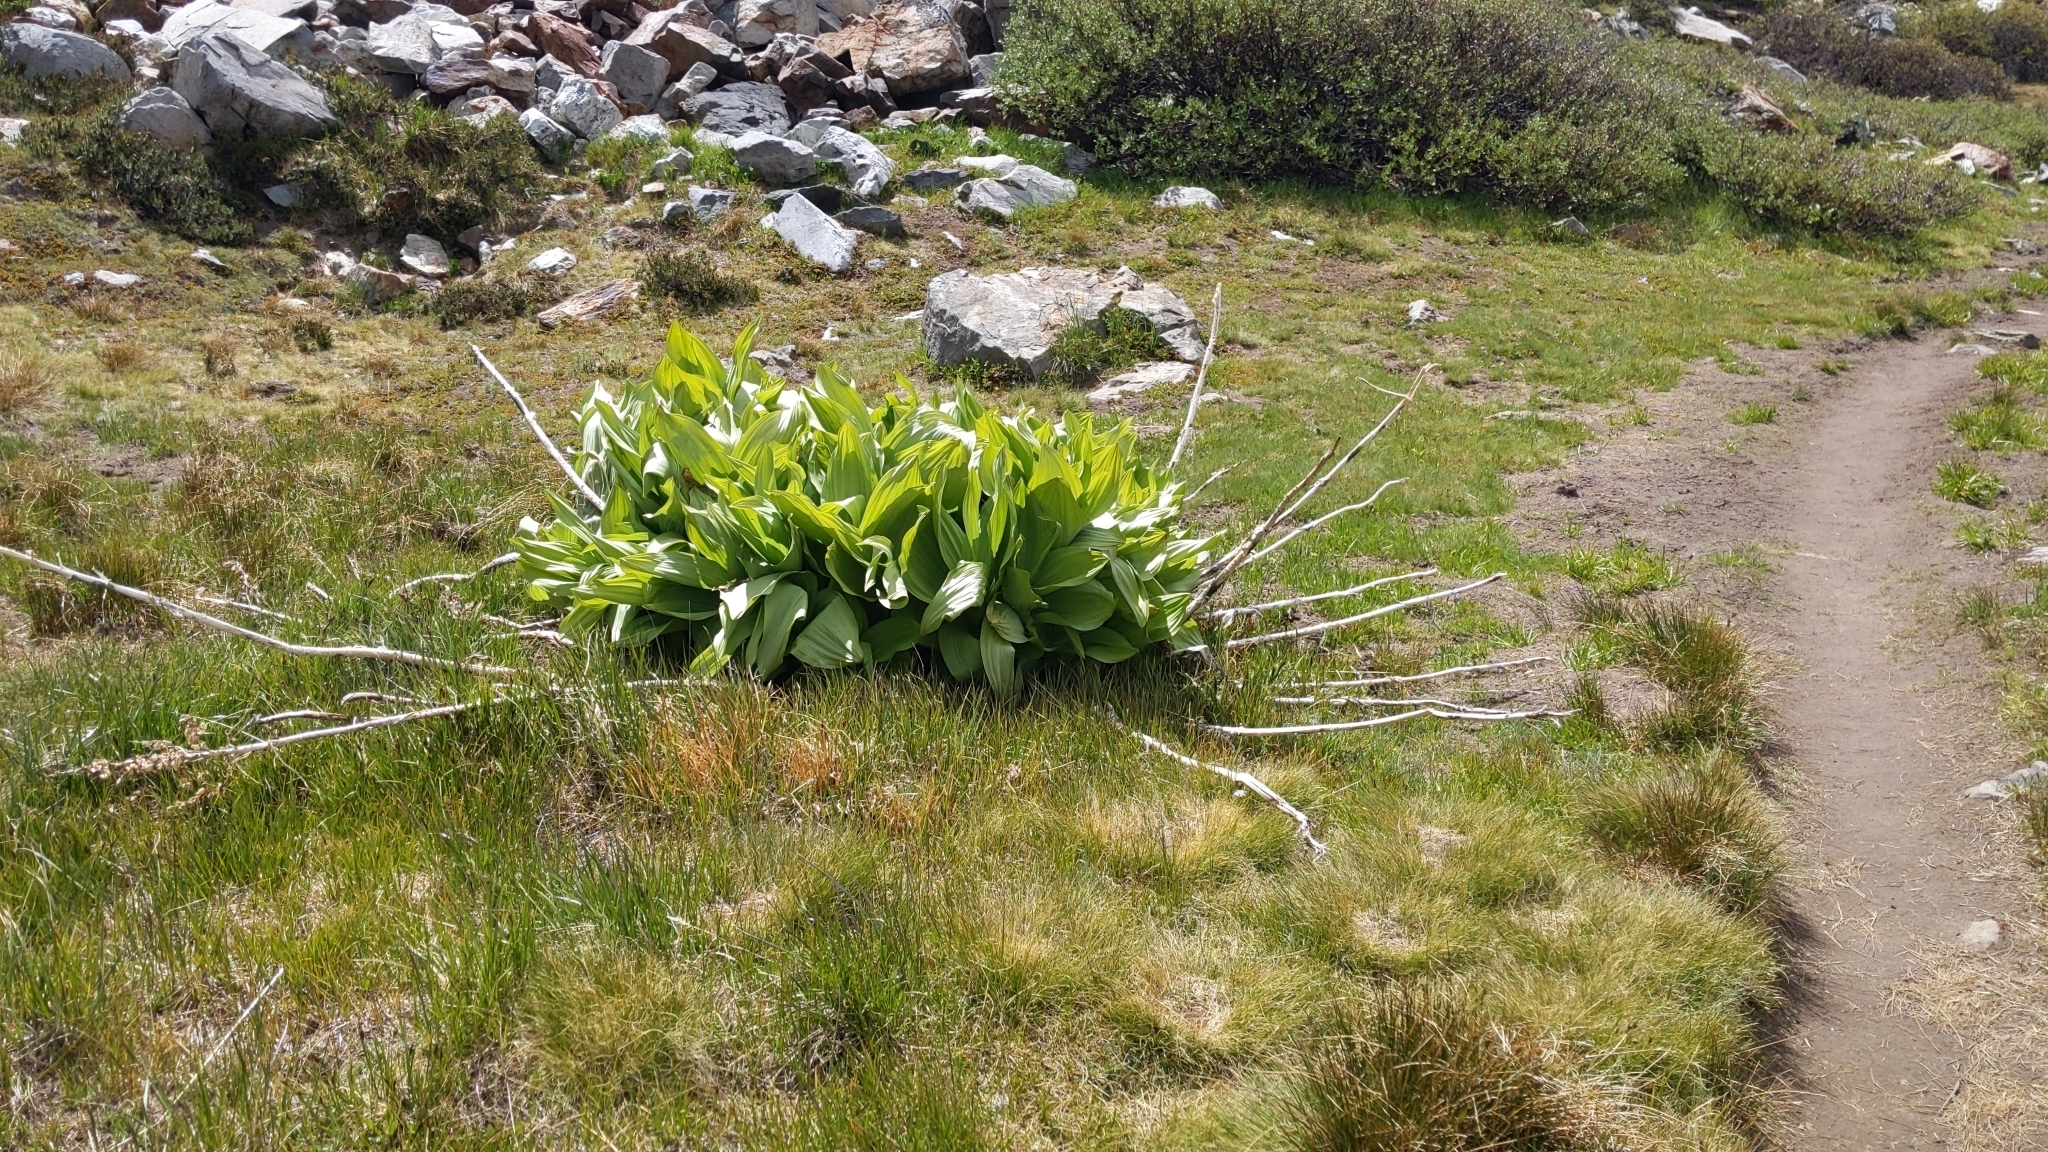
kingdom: Plantae
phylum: Tracheophyta
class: Liliopsida
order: Liliales
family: Melanthiaceae
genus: Veratrum
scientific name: Veratrum californicum
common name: California veratrum
